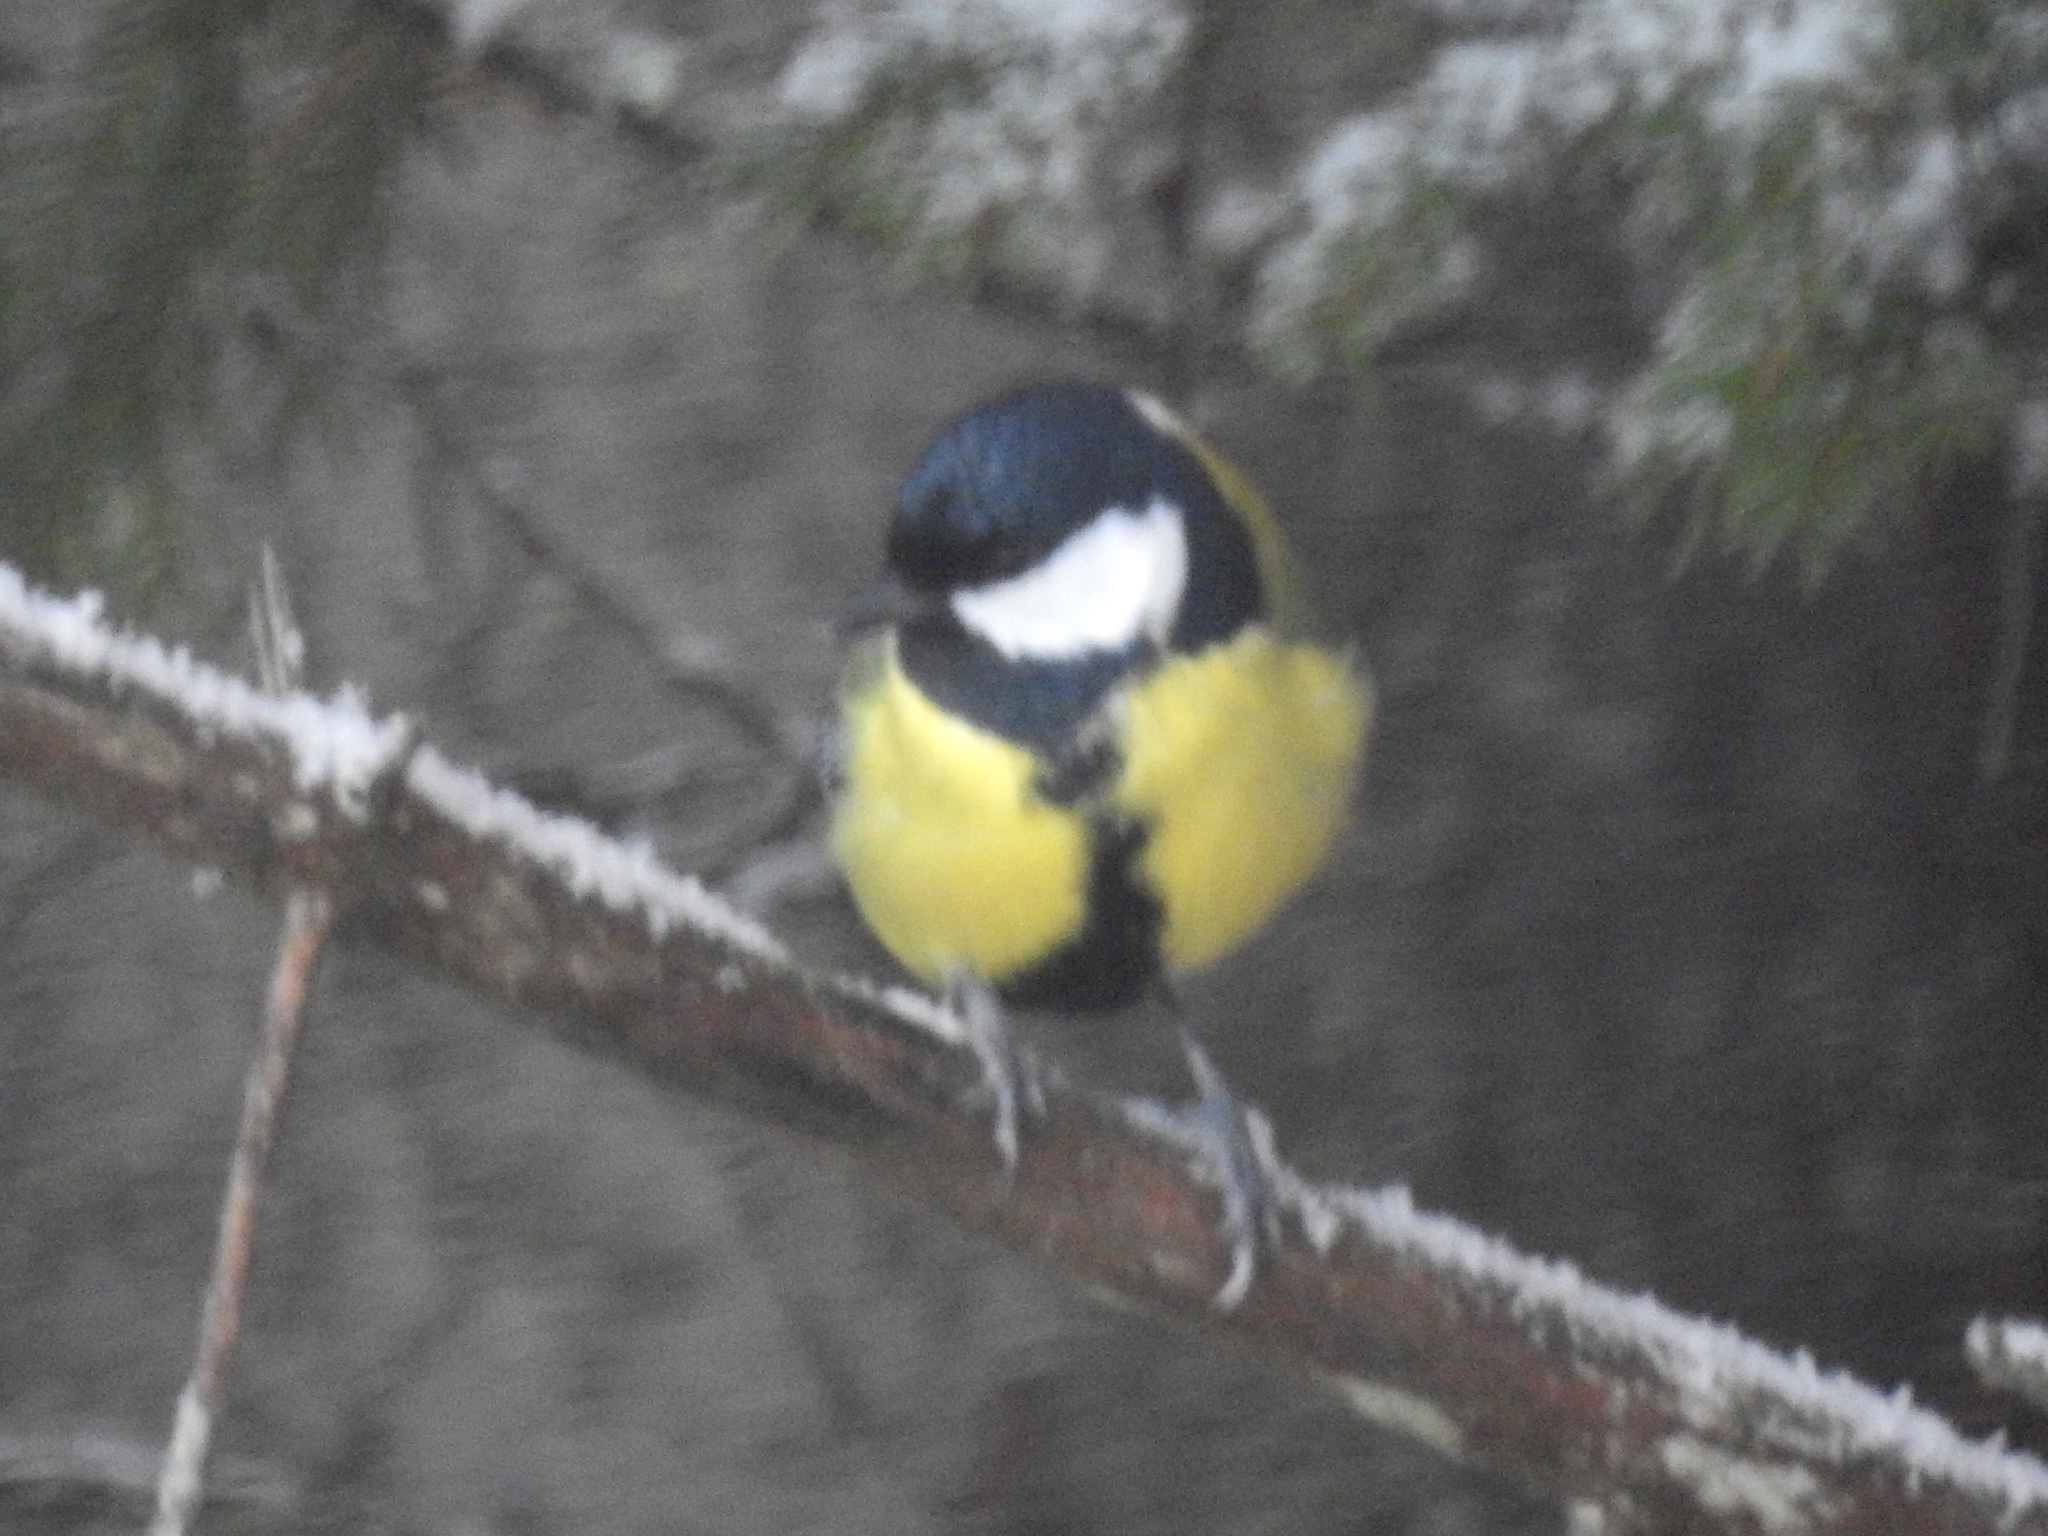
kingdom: Animalia
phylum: Chordata
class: Aves
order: Passeriformes
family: Paridae
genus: Parus
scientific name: Parus major
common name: Great tit
